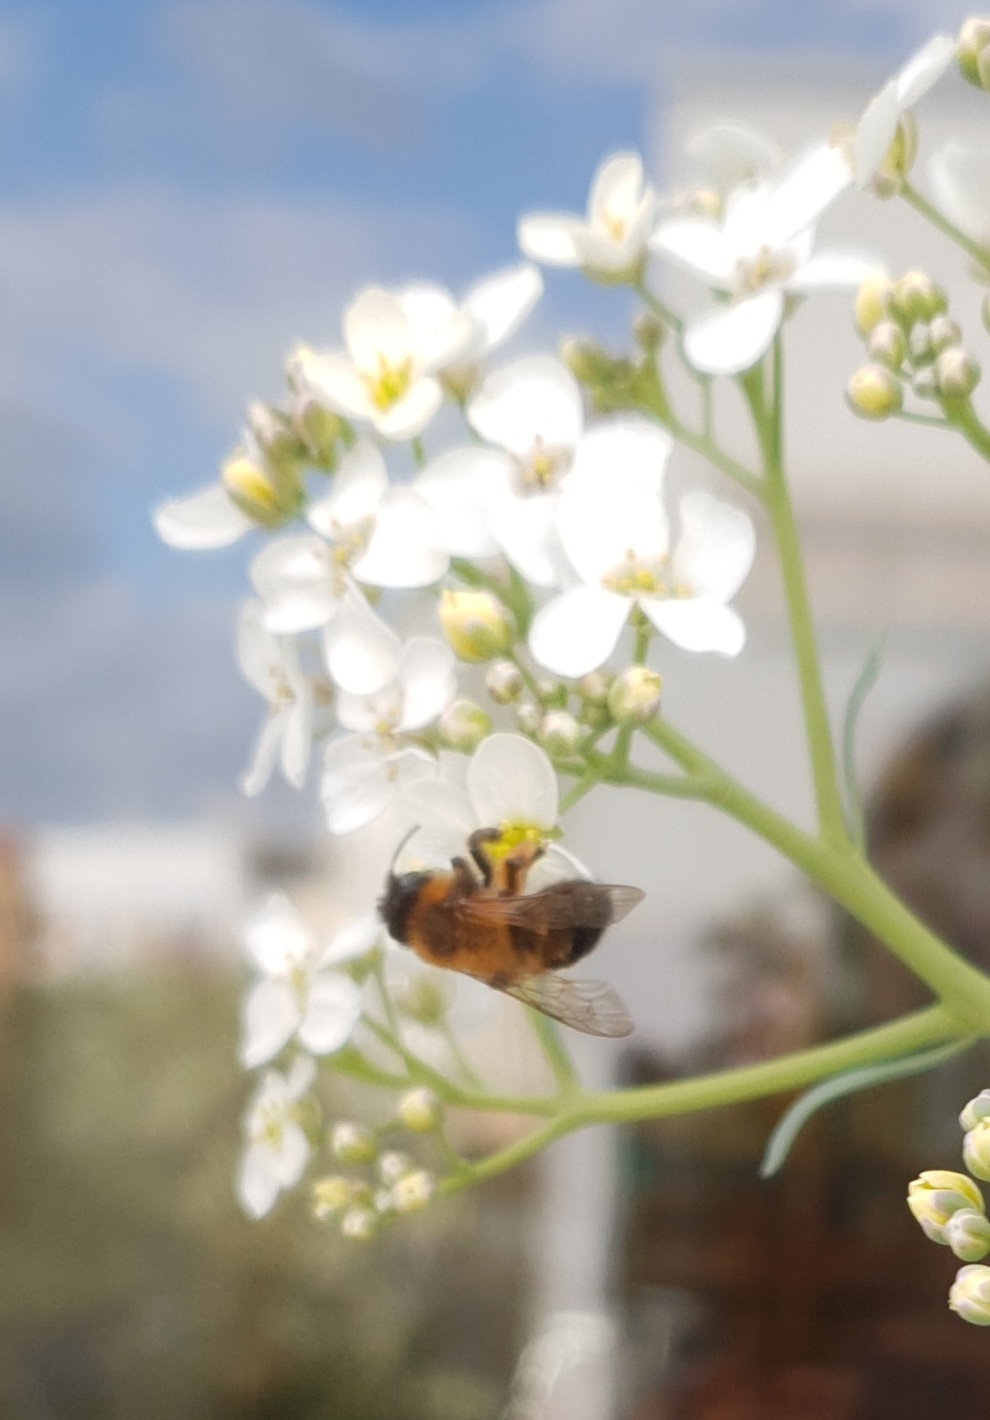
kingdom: Animalia
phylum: Arthropoda
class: Insecta
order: Hymenoptera
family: Andrenidae
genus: Andrena
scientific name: Andrena nigroaenea
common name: Buffish mining bee
